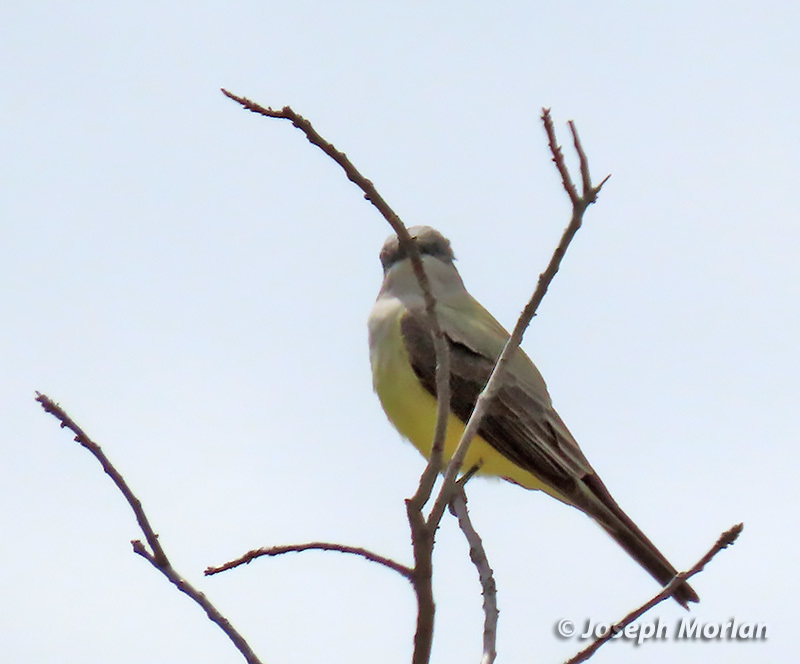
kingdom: Animalia
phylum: Chordata
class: Aves
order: Passeriformes
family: Tyrannidae
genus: Tyrannus
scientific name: Tyrannus verticalis
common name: Western kingbird
